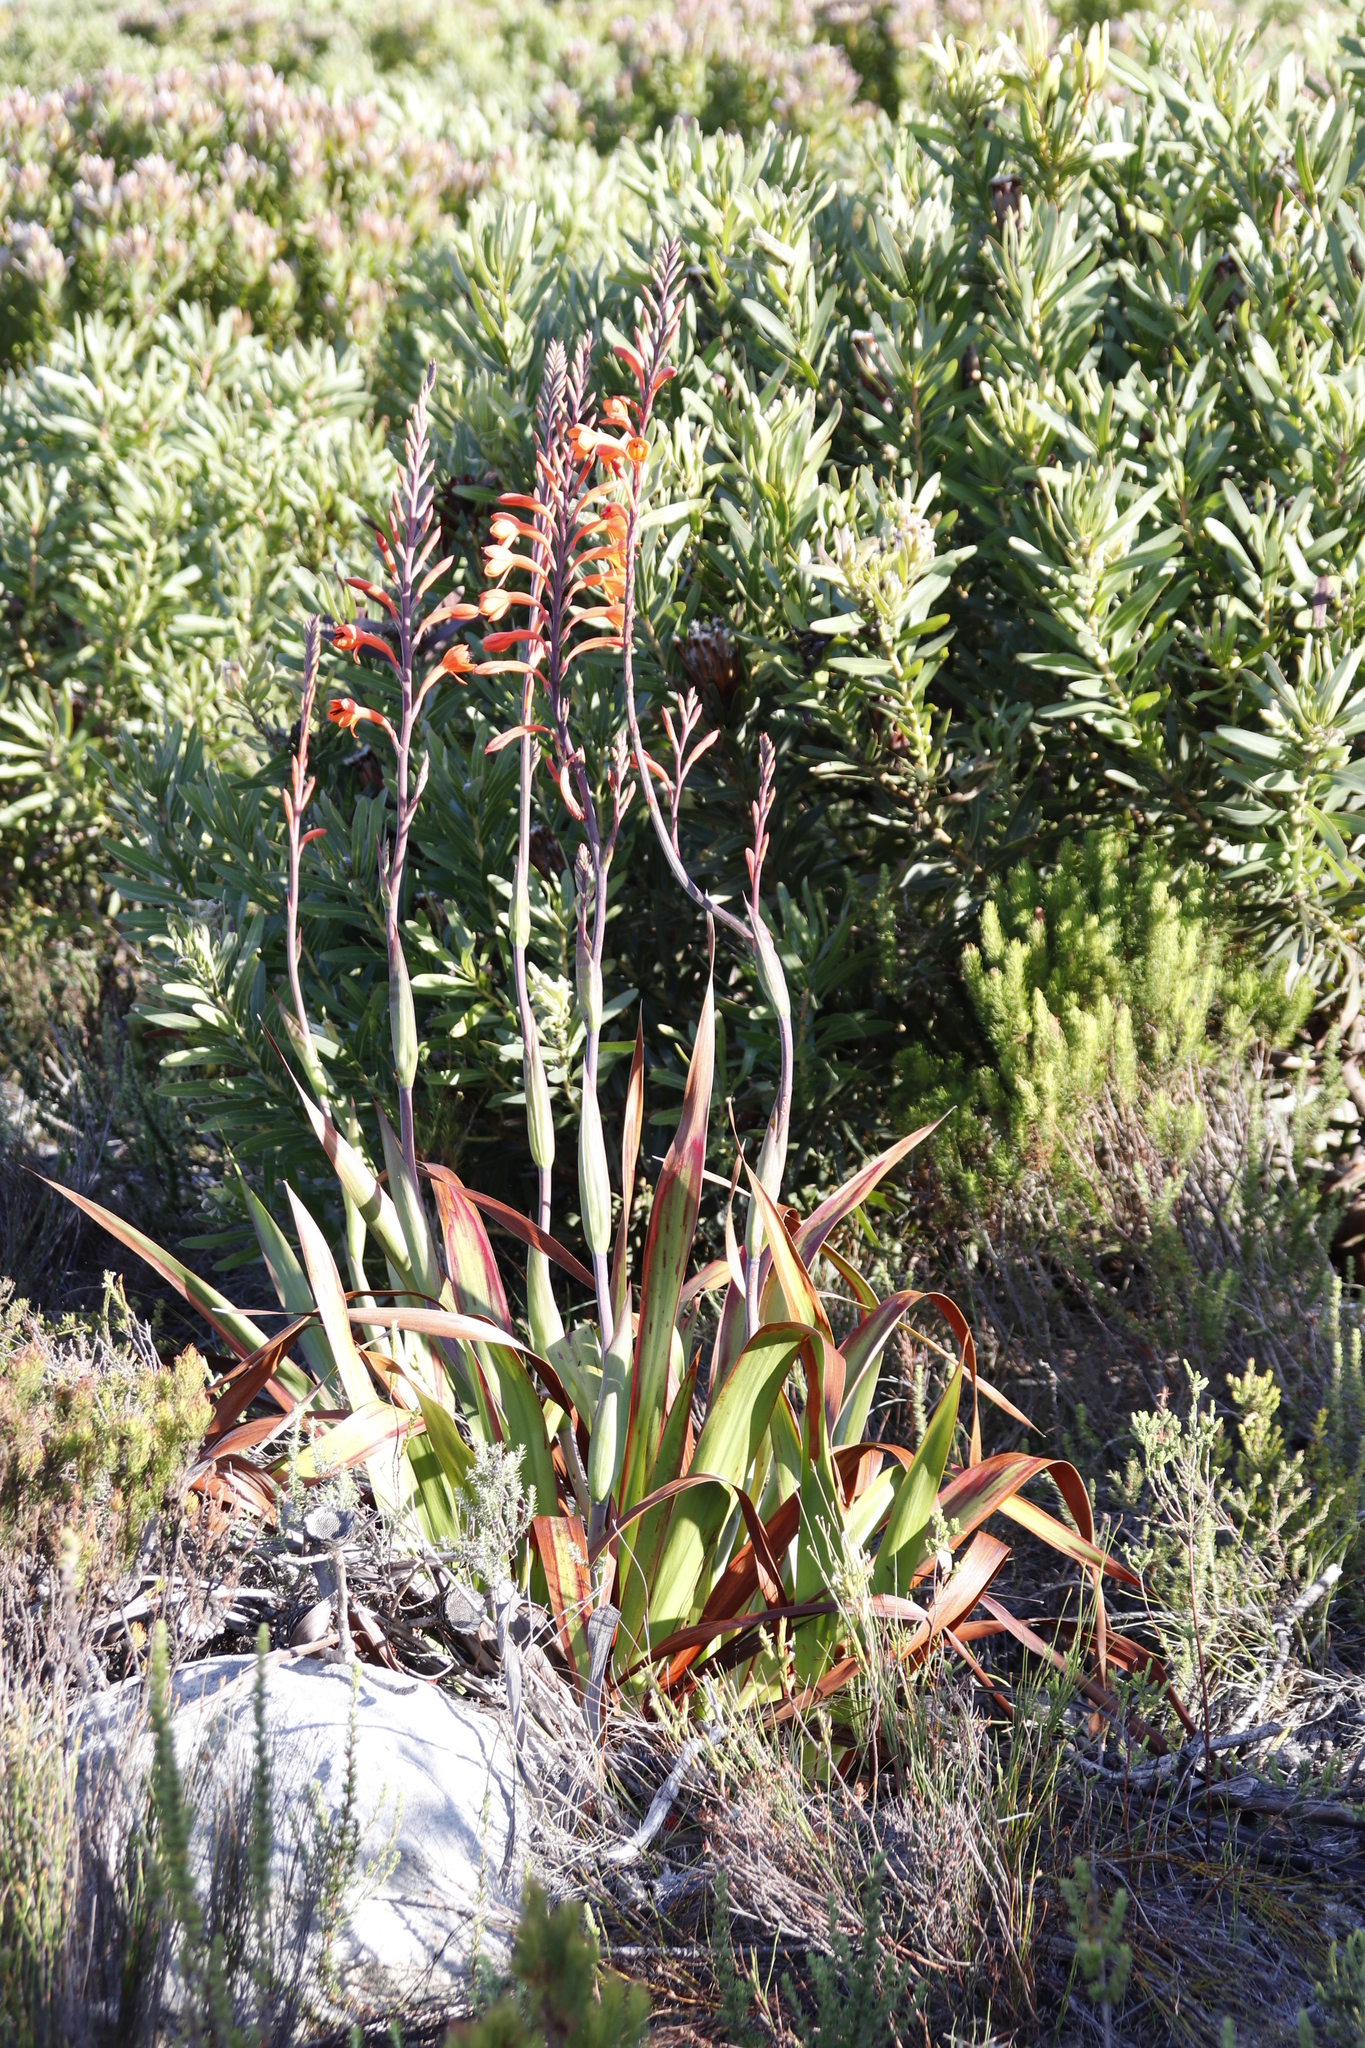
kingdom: Plantae
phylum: Tracheophyta
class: Liliopsida
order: Asparagales
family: Iridaceae
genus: Watsonia
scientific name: Watsonia tabularis
